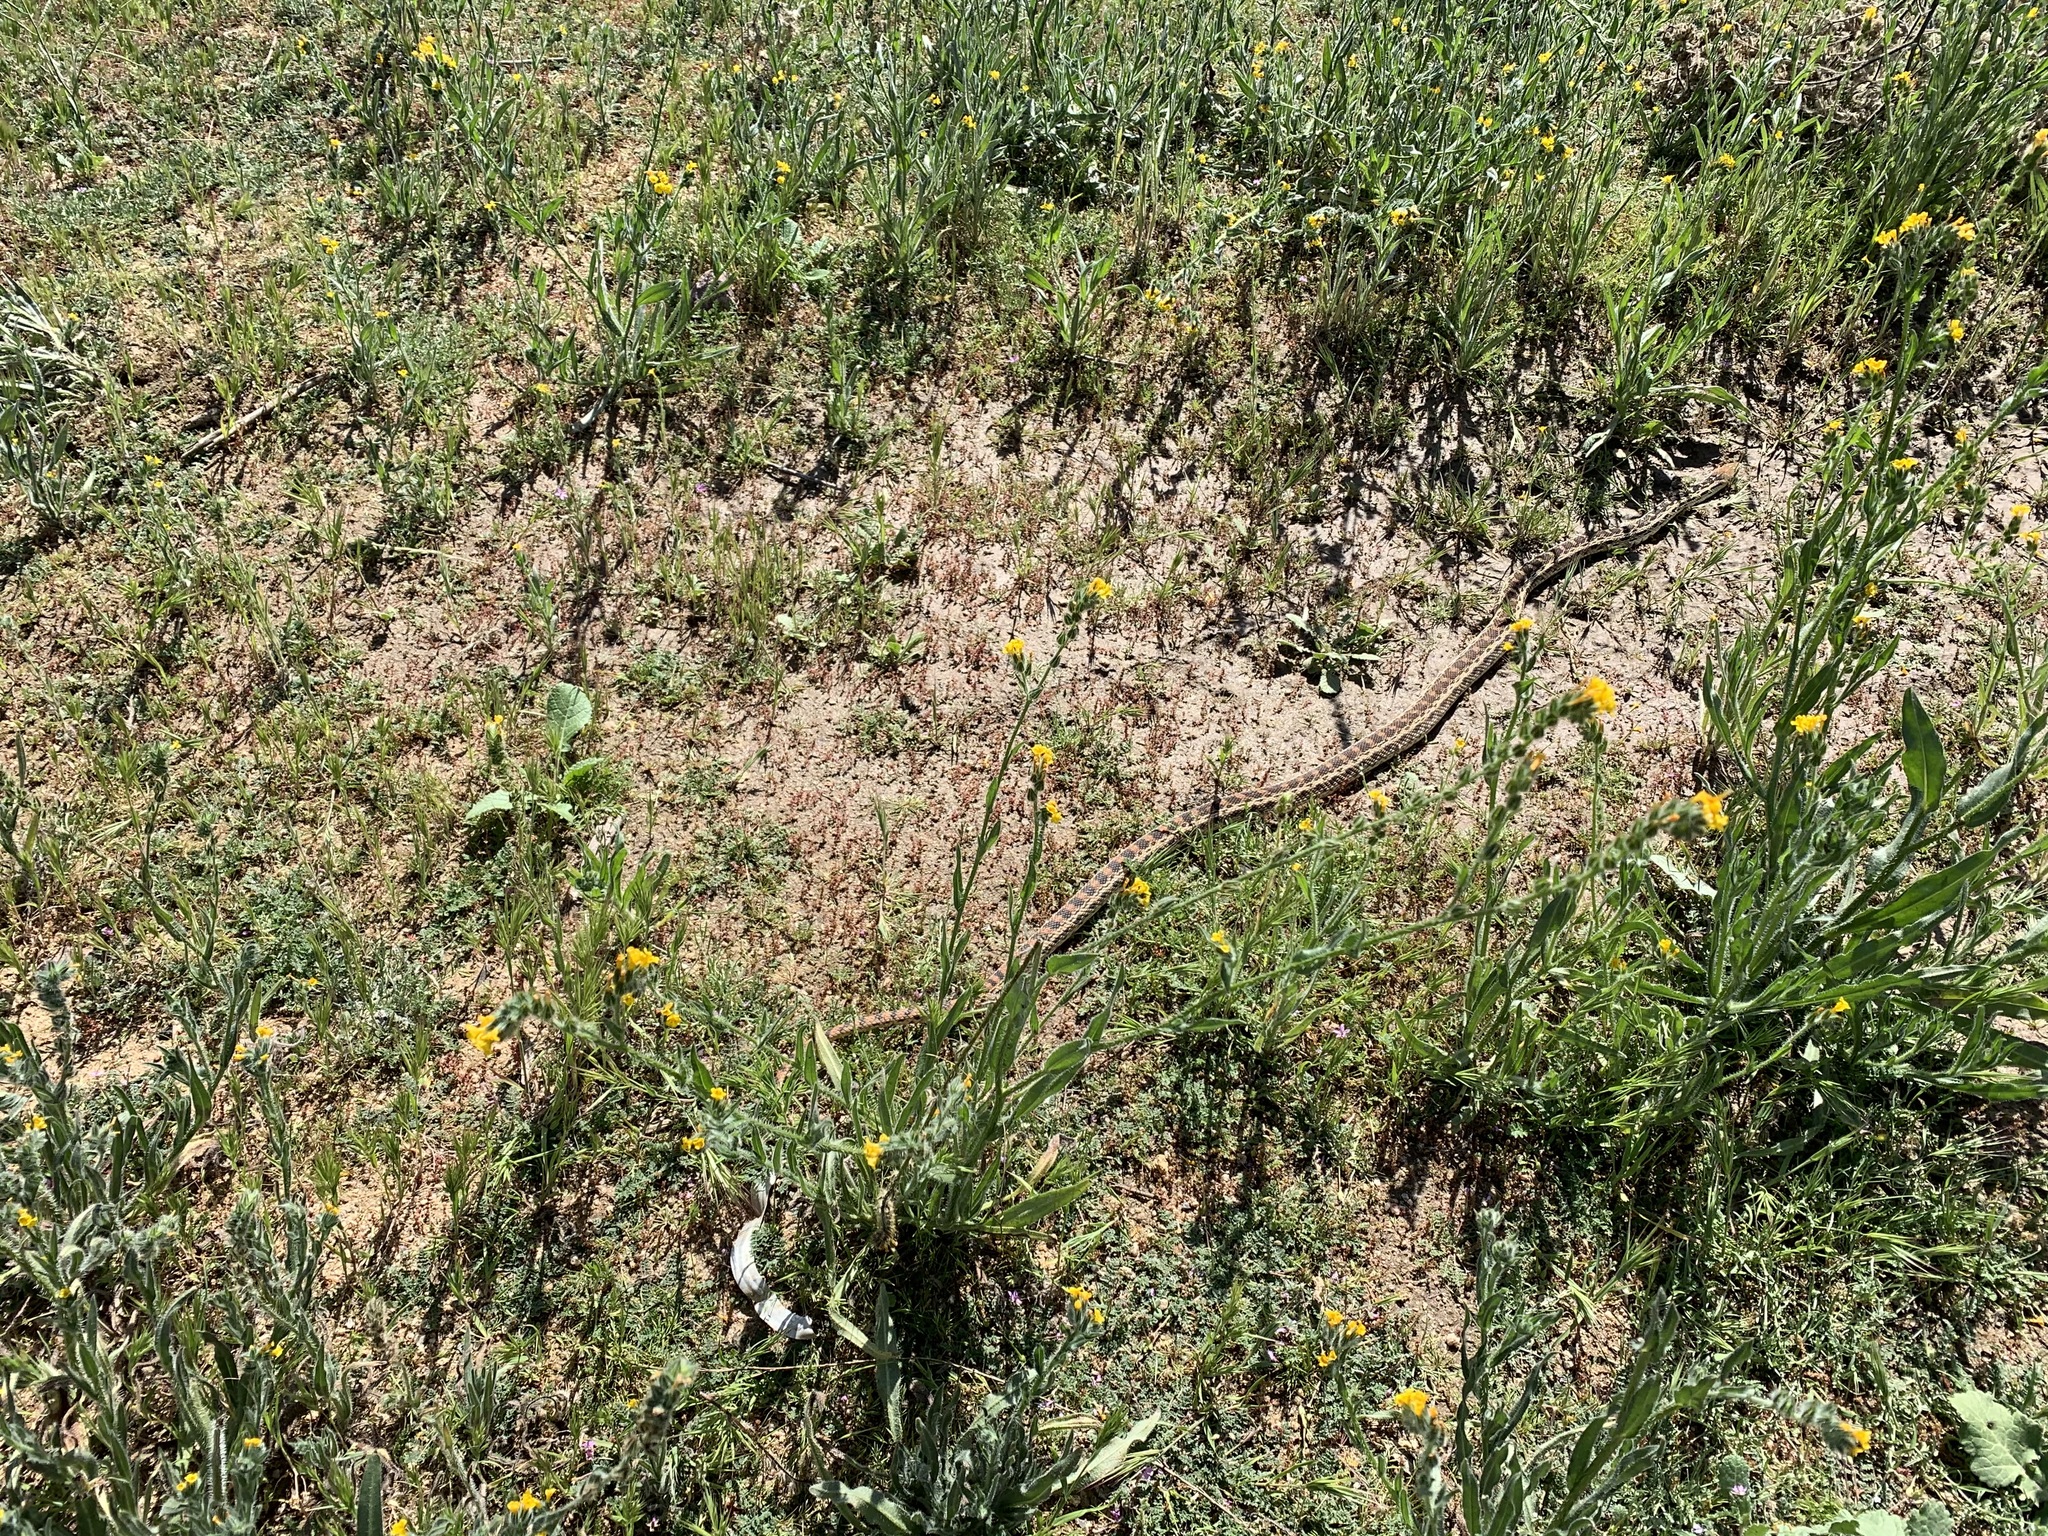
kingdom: Animalia
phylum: Chordata
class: Squamata
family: Colubridae
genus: Pituophis
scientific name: Pituophis catenifer
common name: Gopher snake
